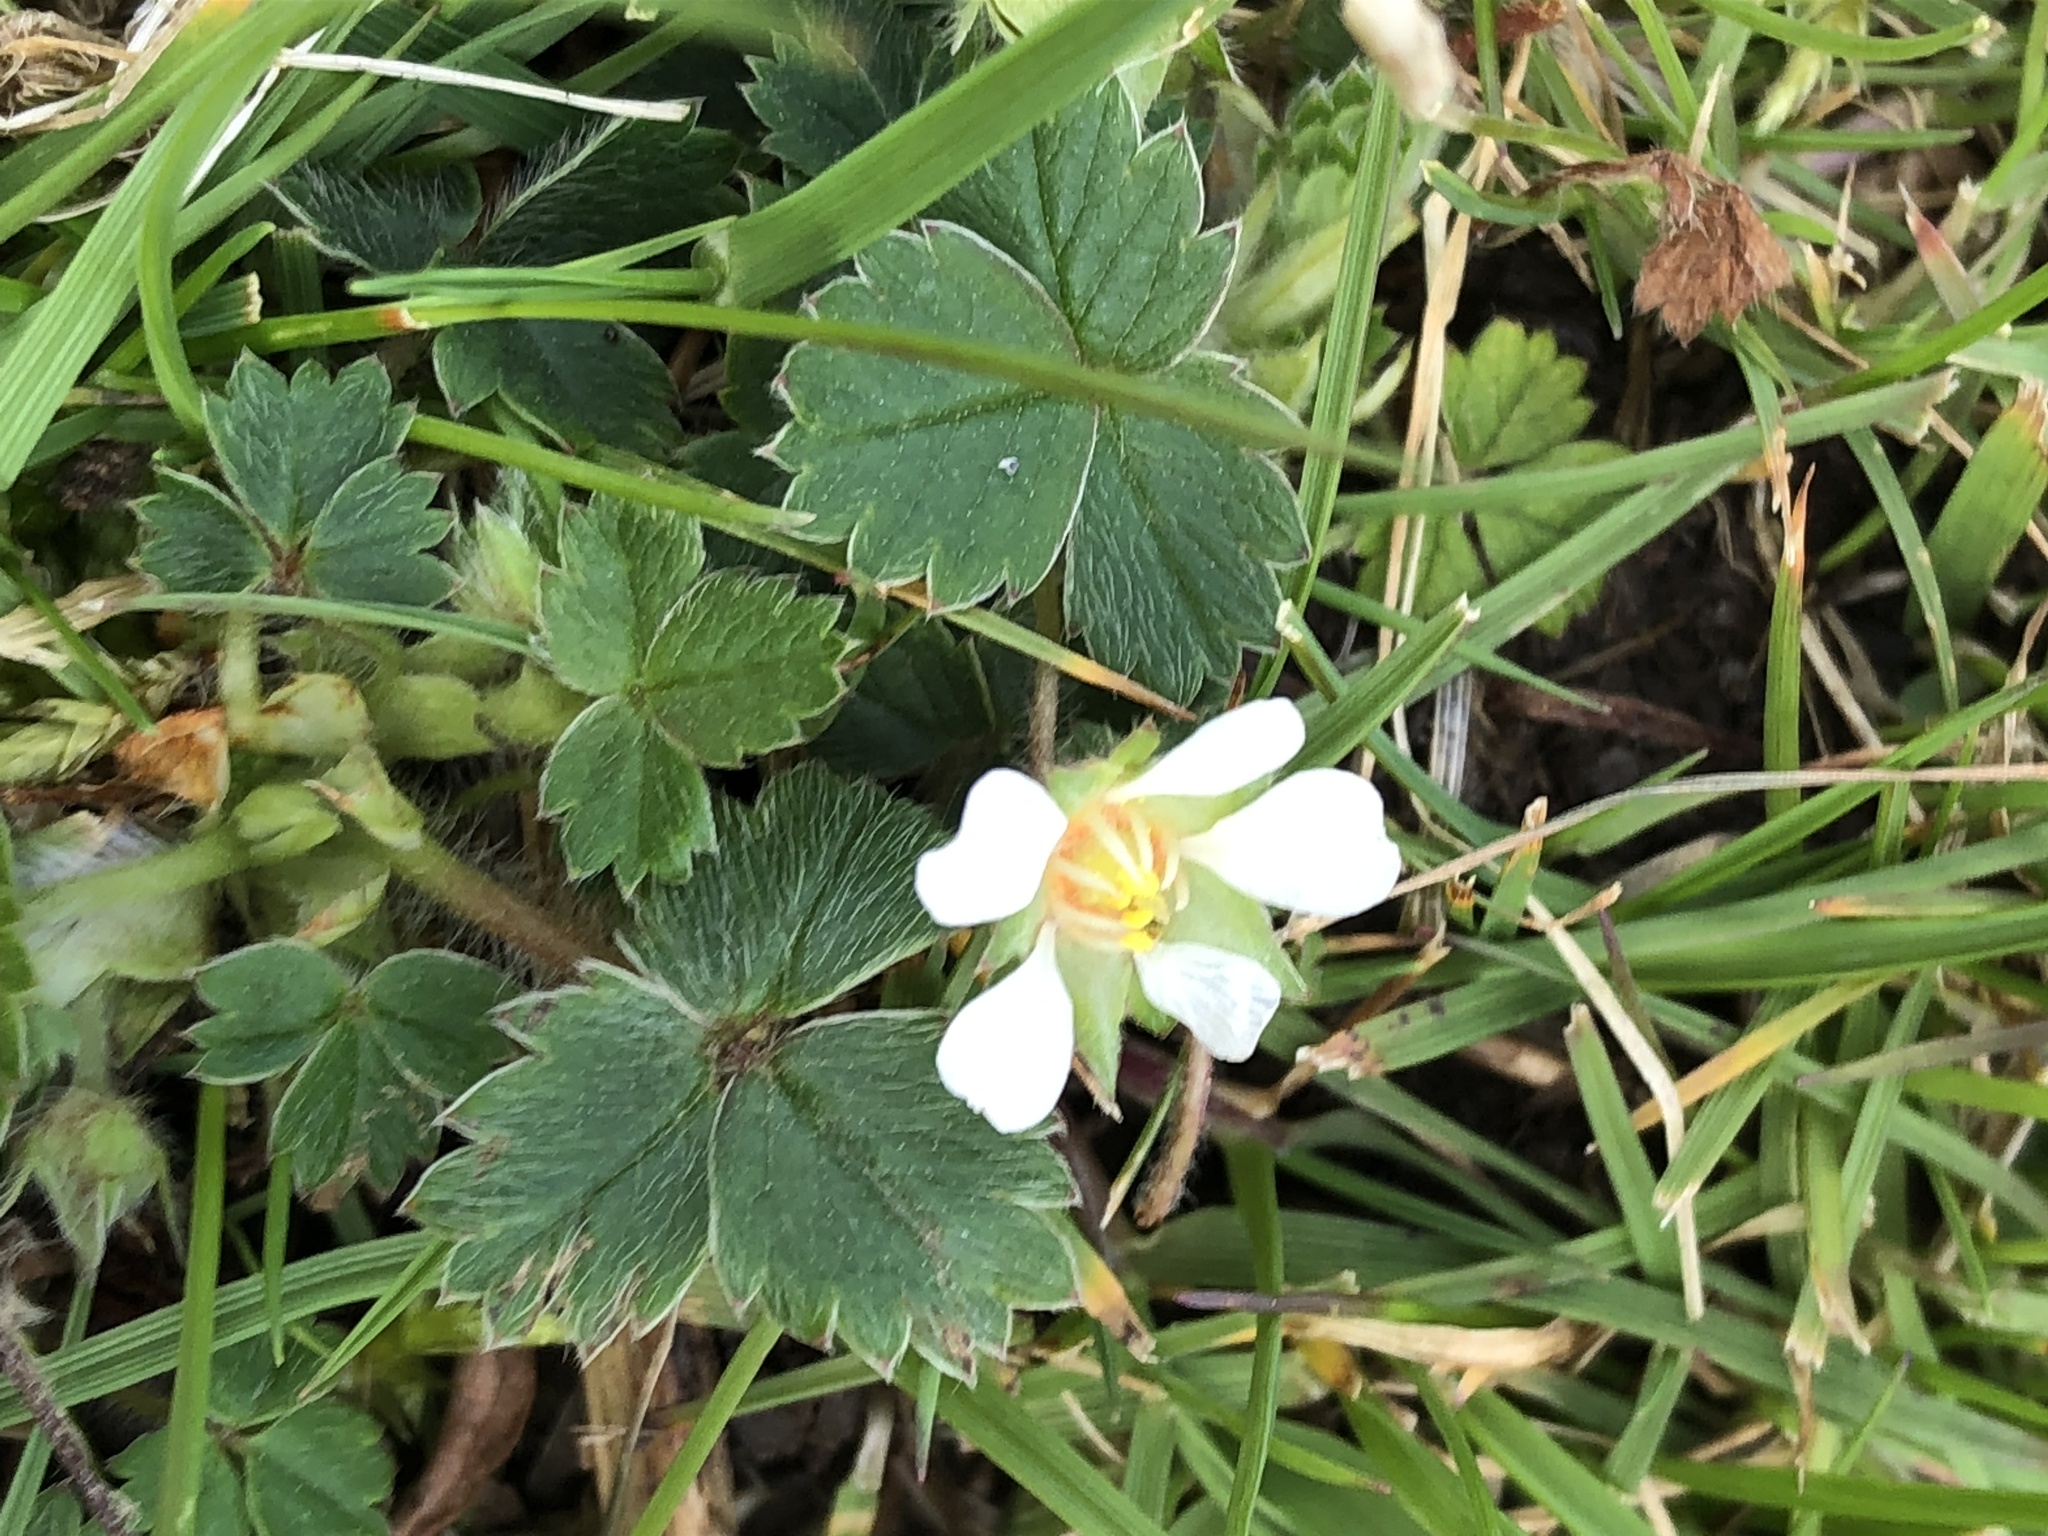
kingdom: Plantae
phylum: Tracheophyta
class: Magnoliopsida
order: Rosales
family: Rosaceae
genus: Potentilla
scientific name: Potentilla sterilis
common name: Barren strawberry
